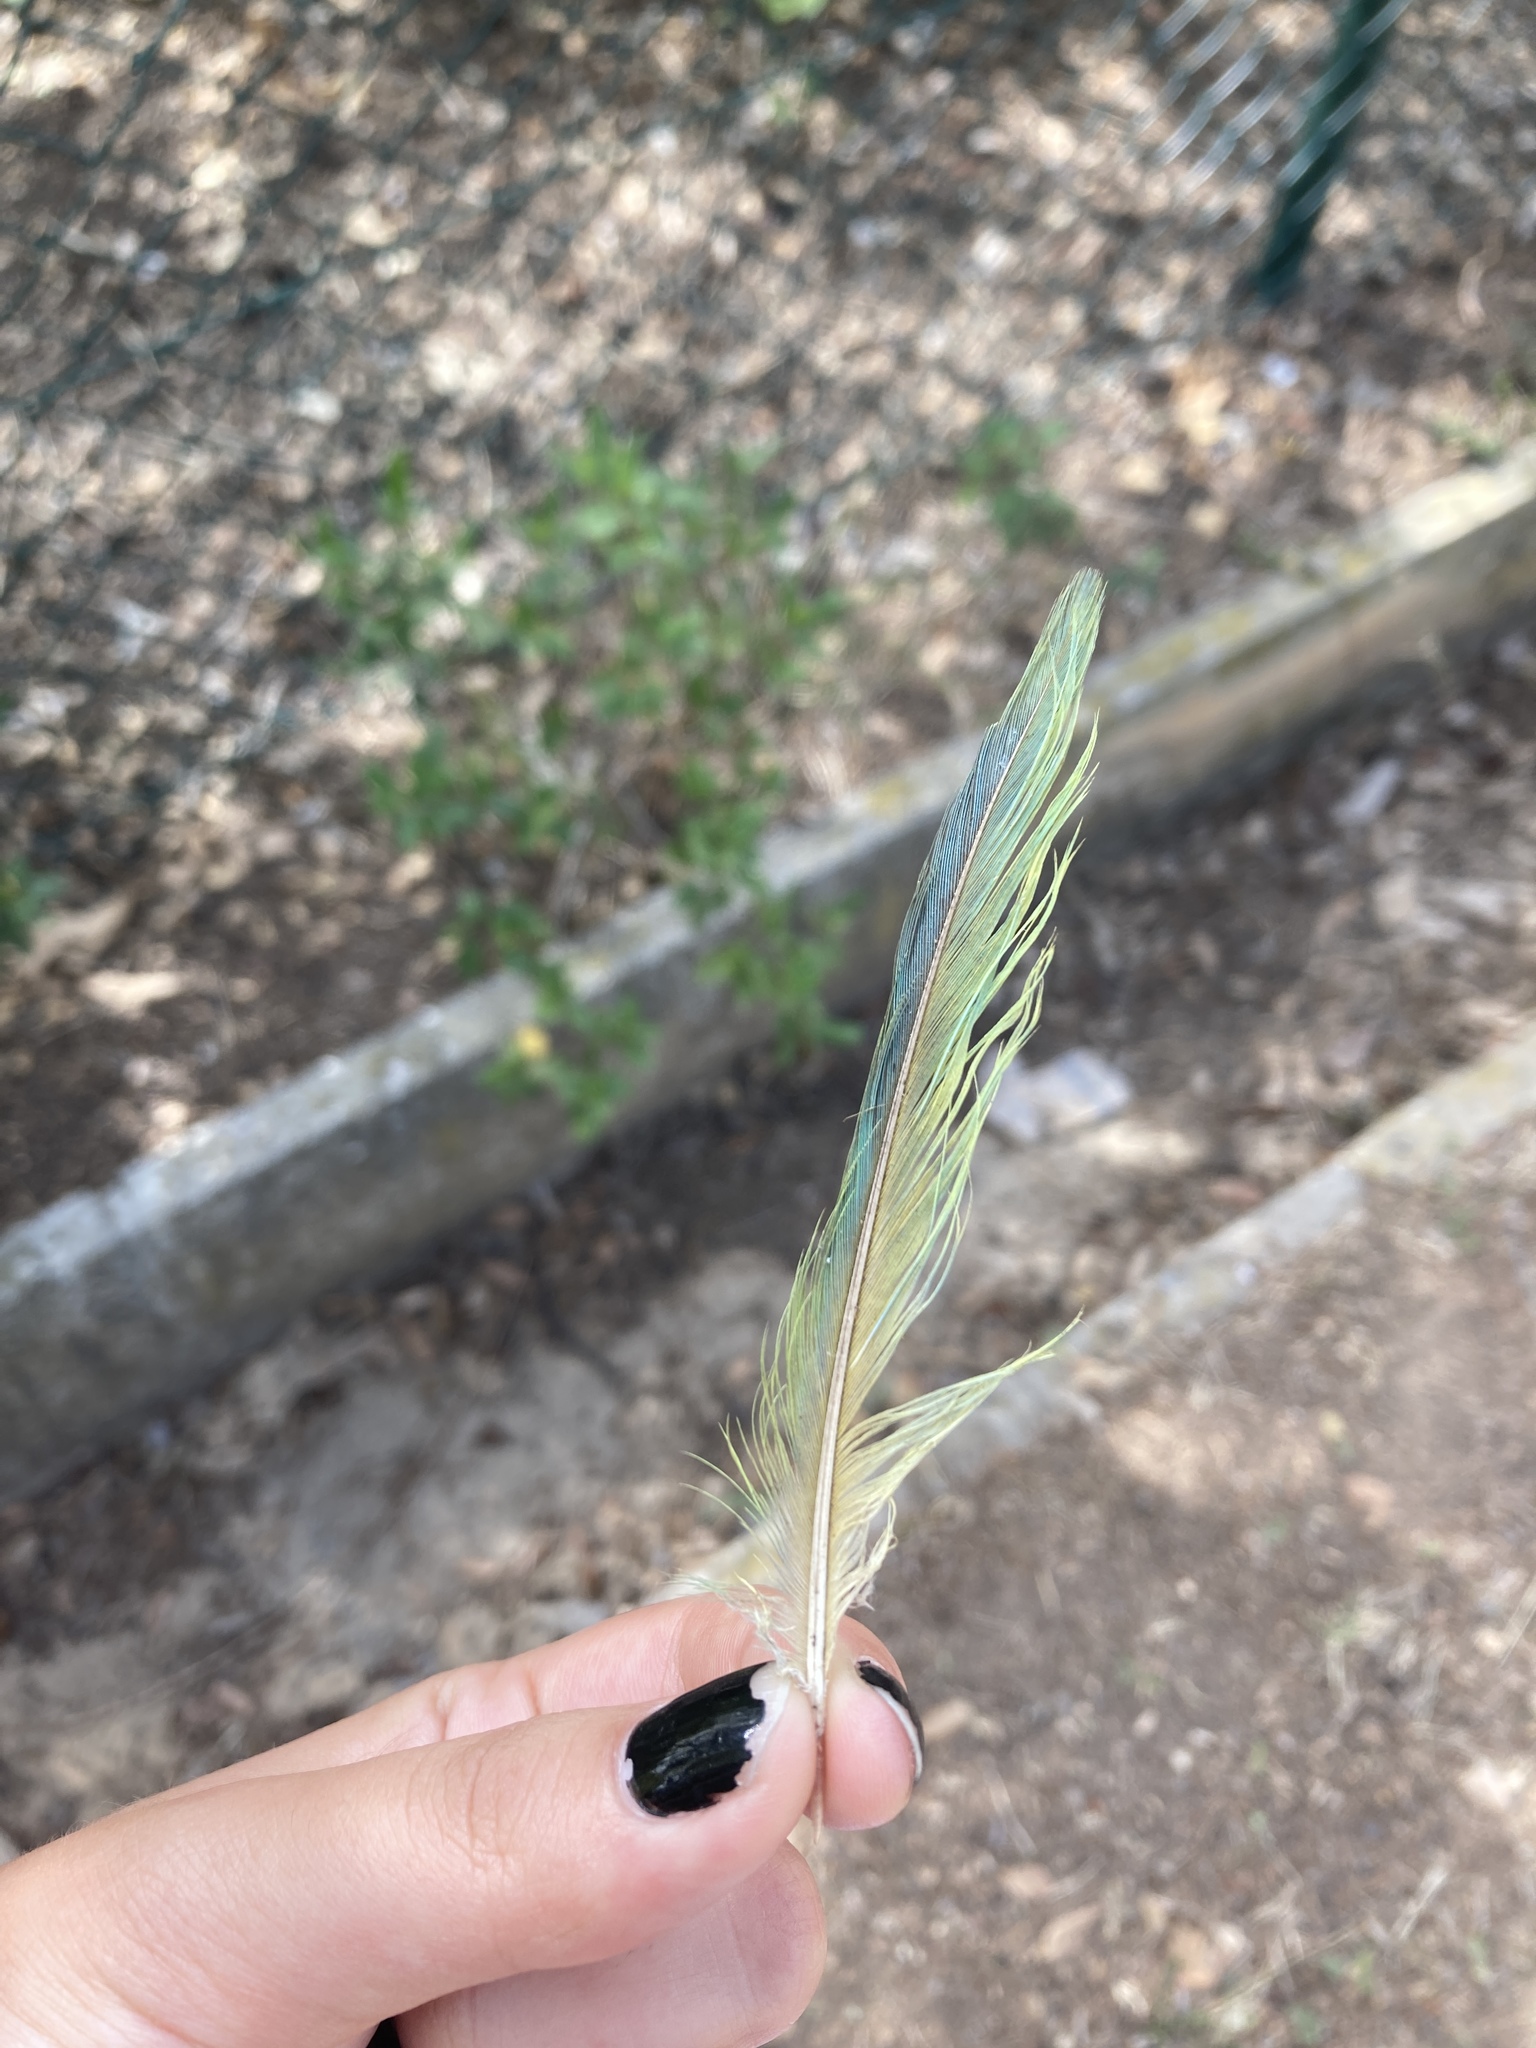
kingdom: Animalia
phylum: Chordata
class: Aves
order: Psittaciformes
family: Psittacidae
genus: Myiopsitta
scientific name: Myiopsitta monachus
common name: Monk parakeet
